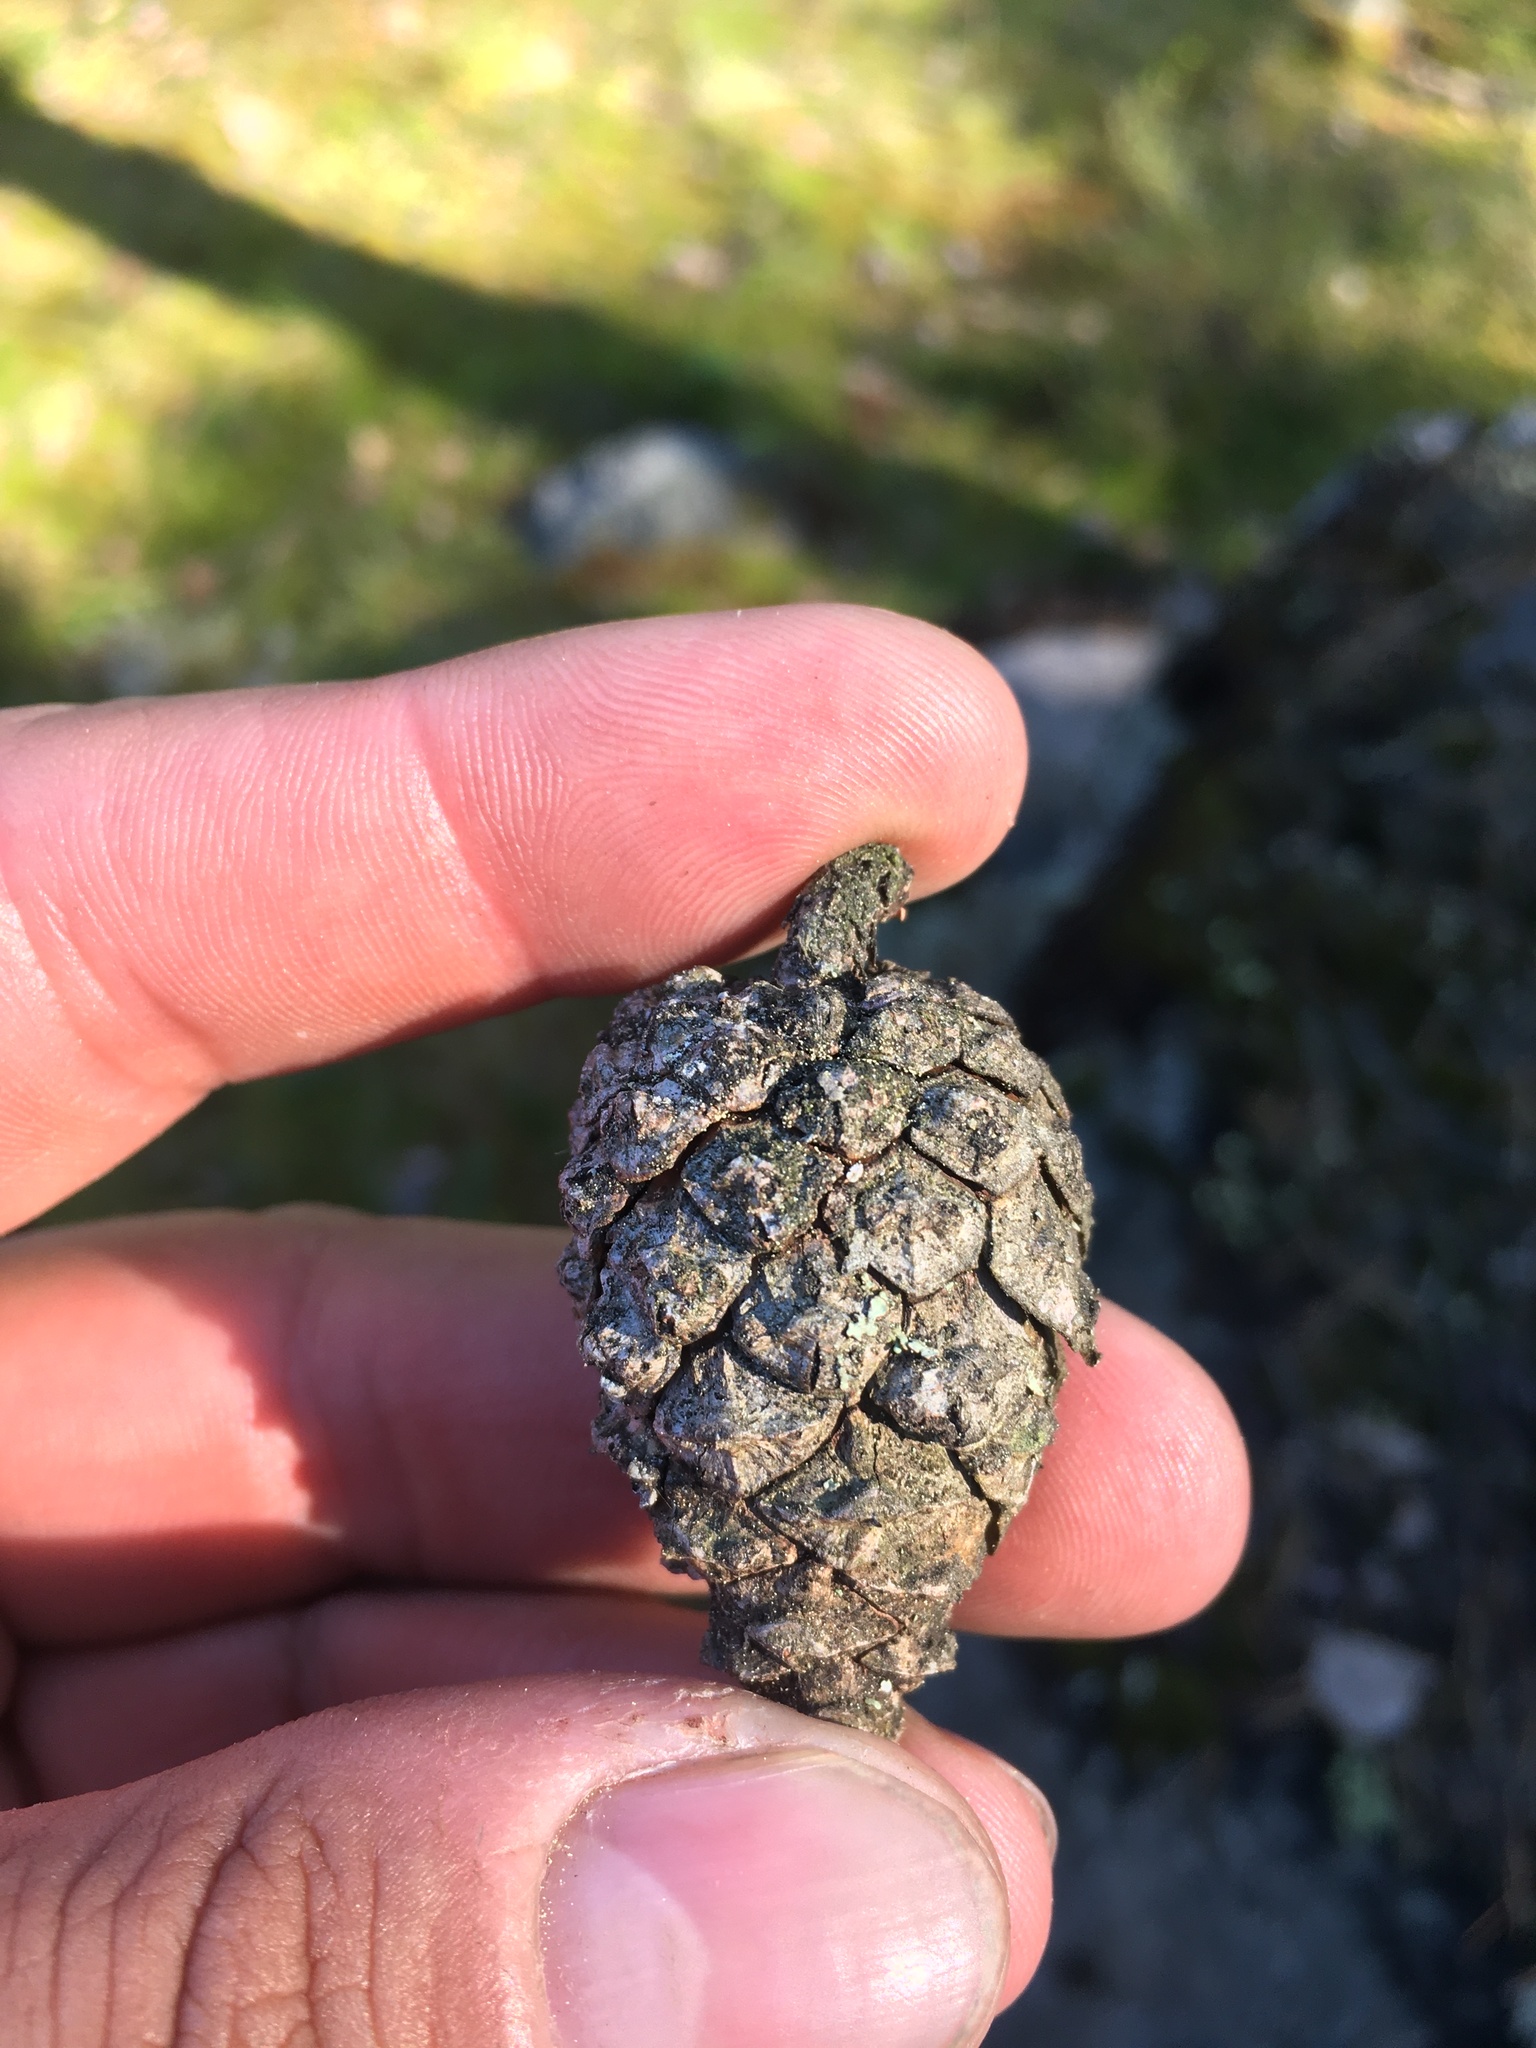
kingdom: Plantae
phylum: Tracheophyta
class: Pinopsida
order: Pinales
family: Pinaceae
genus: Pinus
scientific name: Pinus sylvestris
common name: Scots pine
